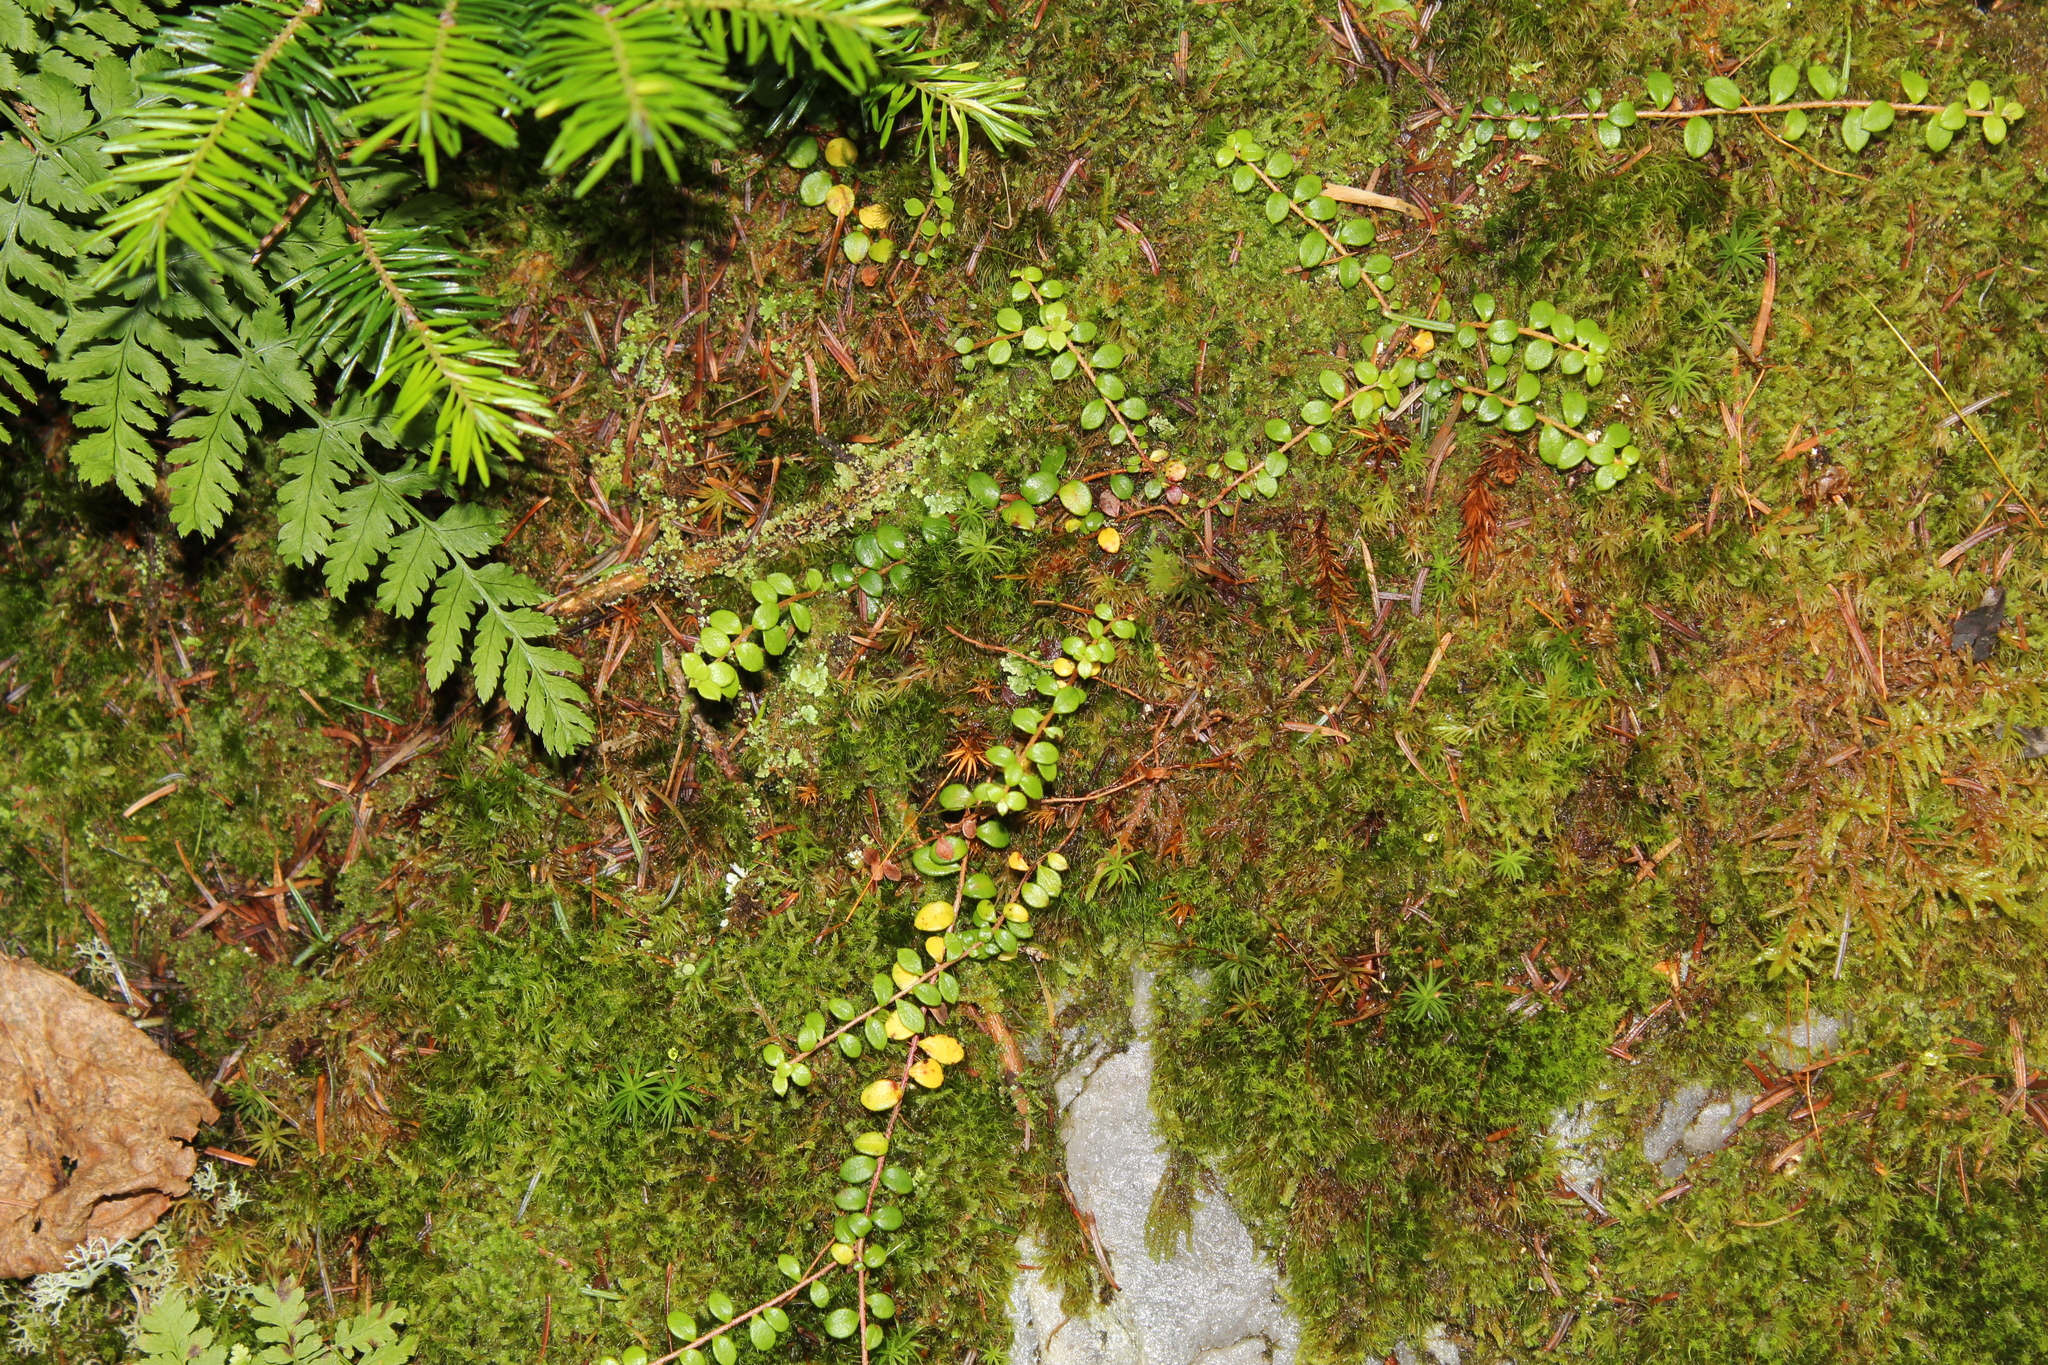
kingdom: Plantae
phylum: Tracheophyta
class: Magnoliopsida
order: Ericales
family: Ericaceae
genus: Gaultheria
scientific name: Gaultheria hispidula
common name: Cancer wintergreen
